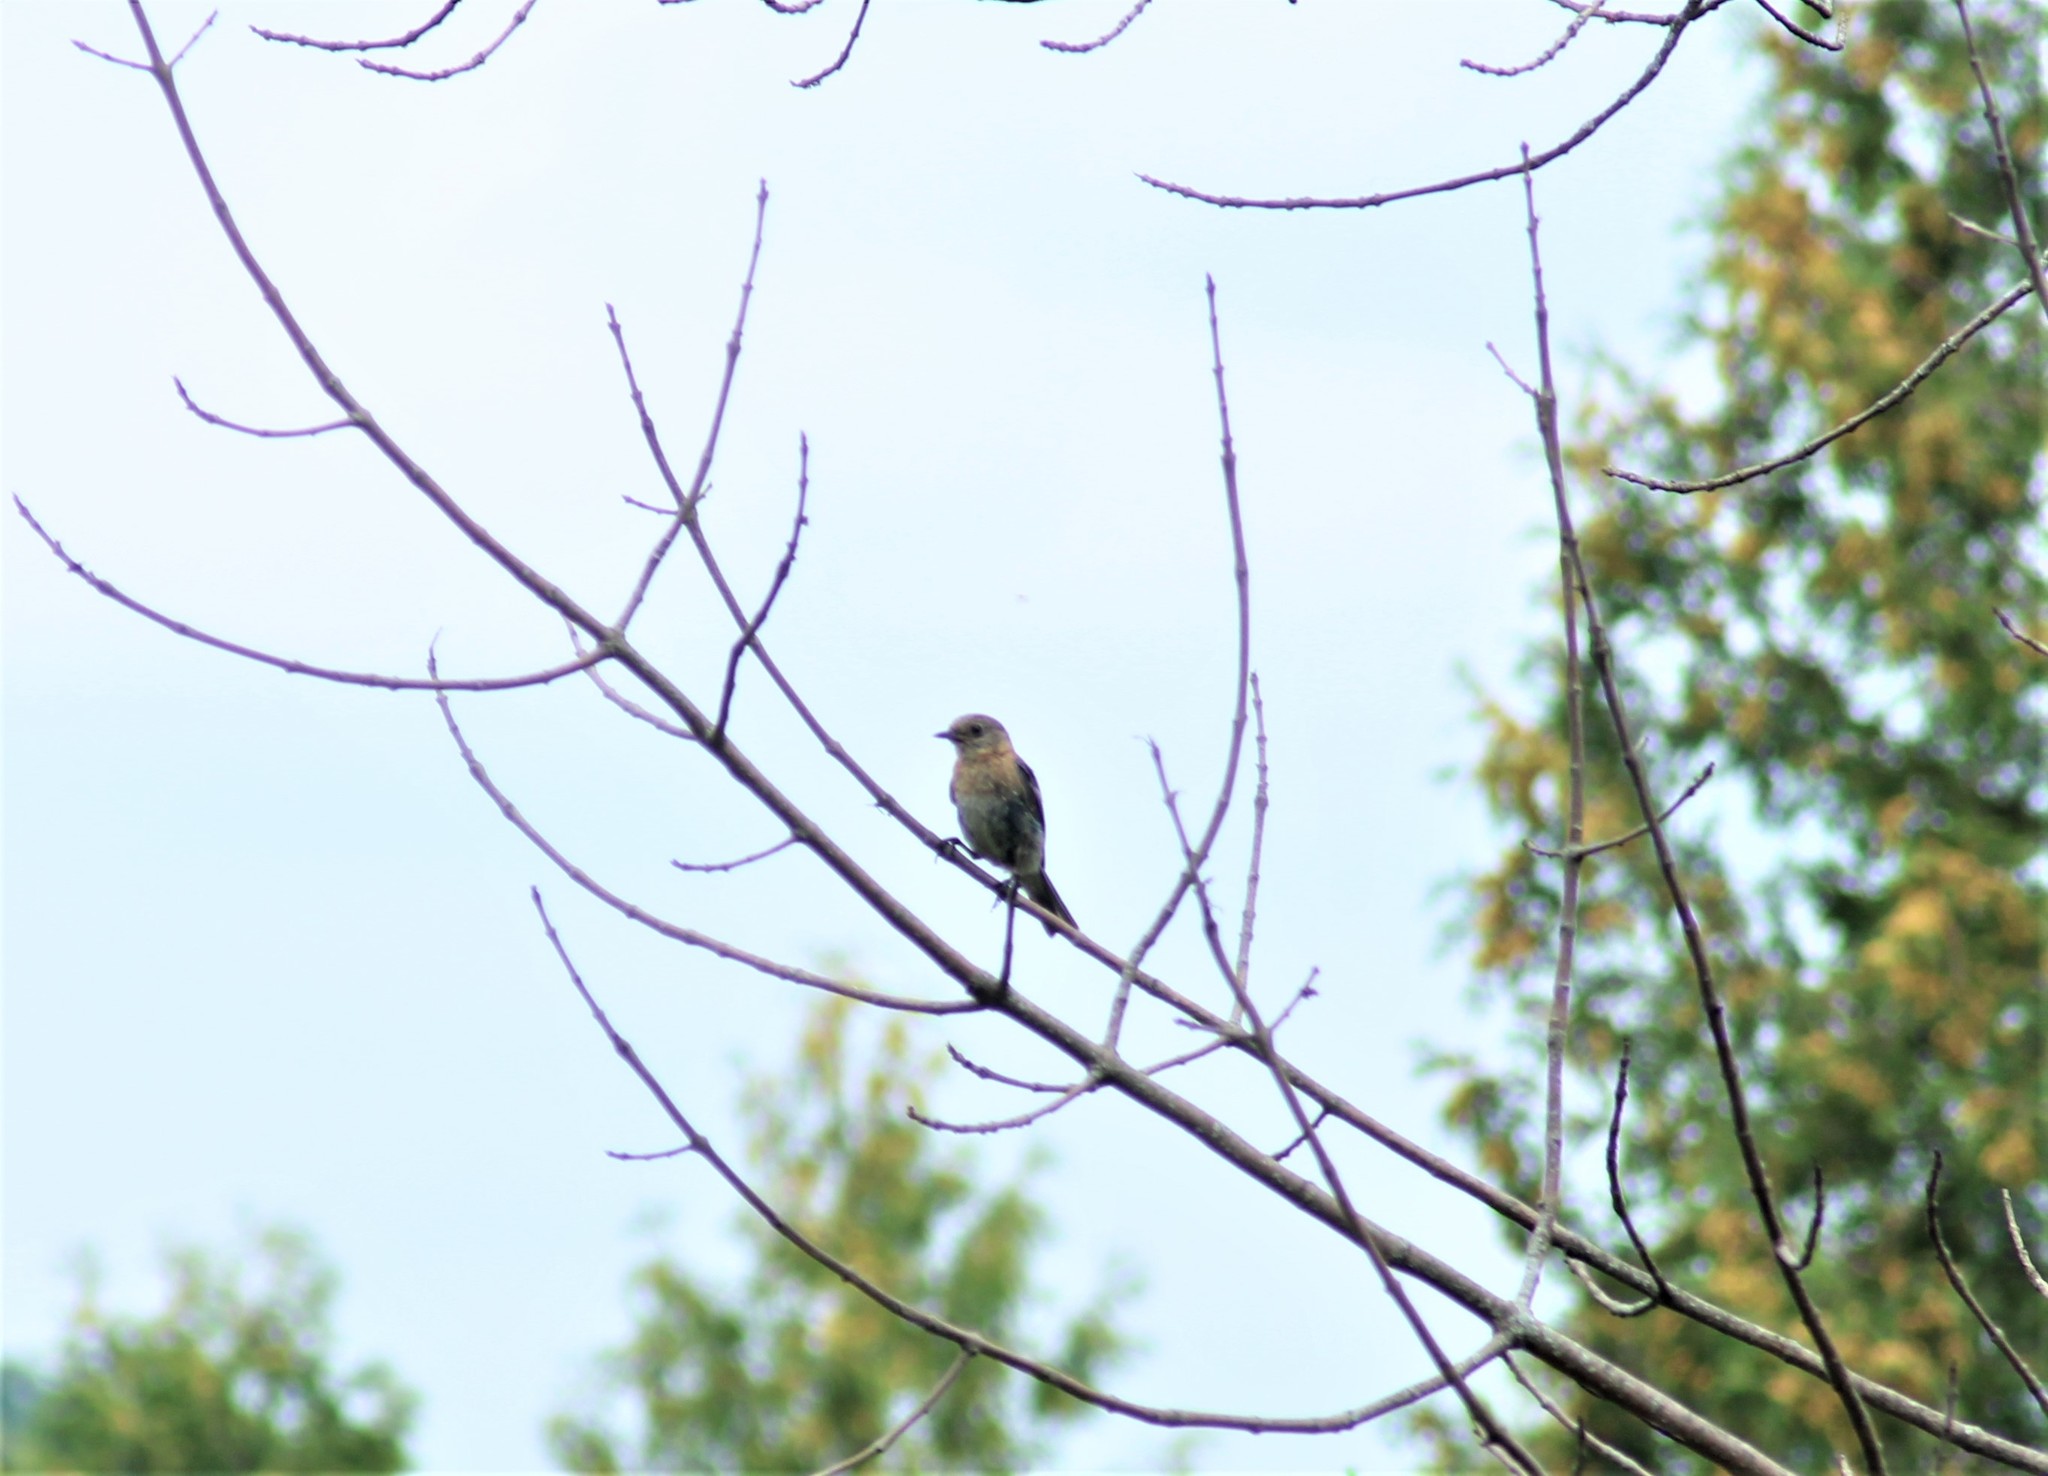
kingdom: Animalia
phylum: Chordata
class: Aves
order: Passeriformes
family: Turdidae
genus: Sialia
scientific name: Sialia sialis
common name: Eastern bluebird
